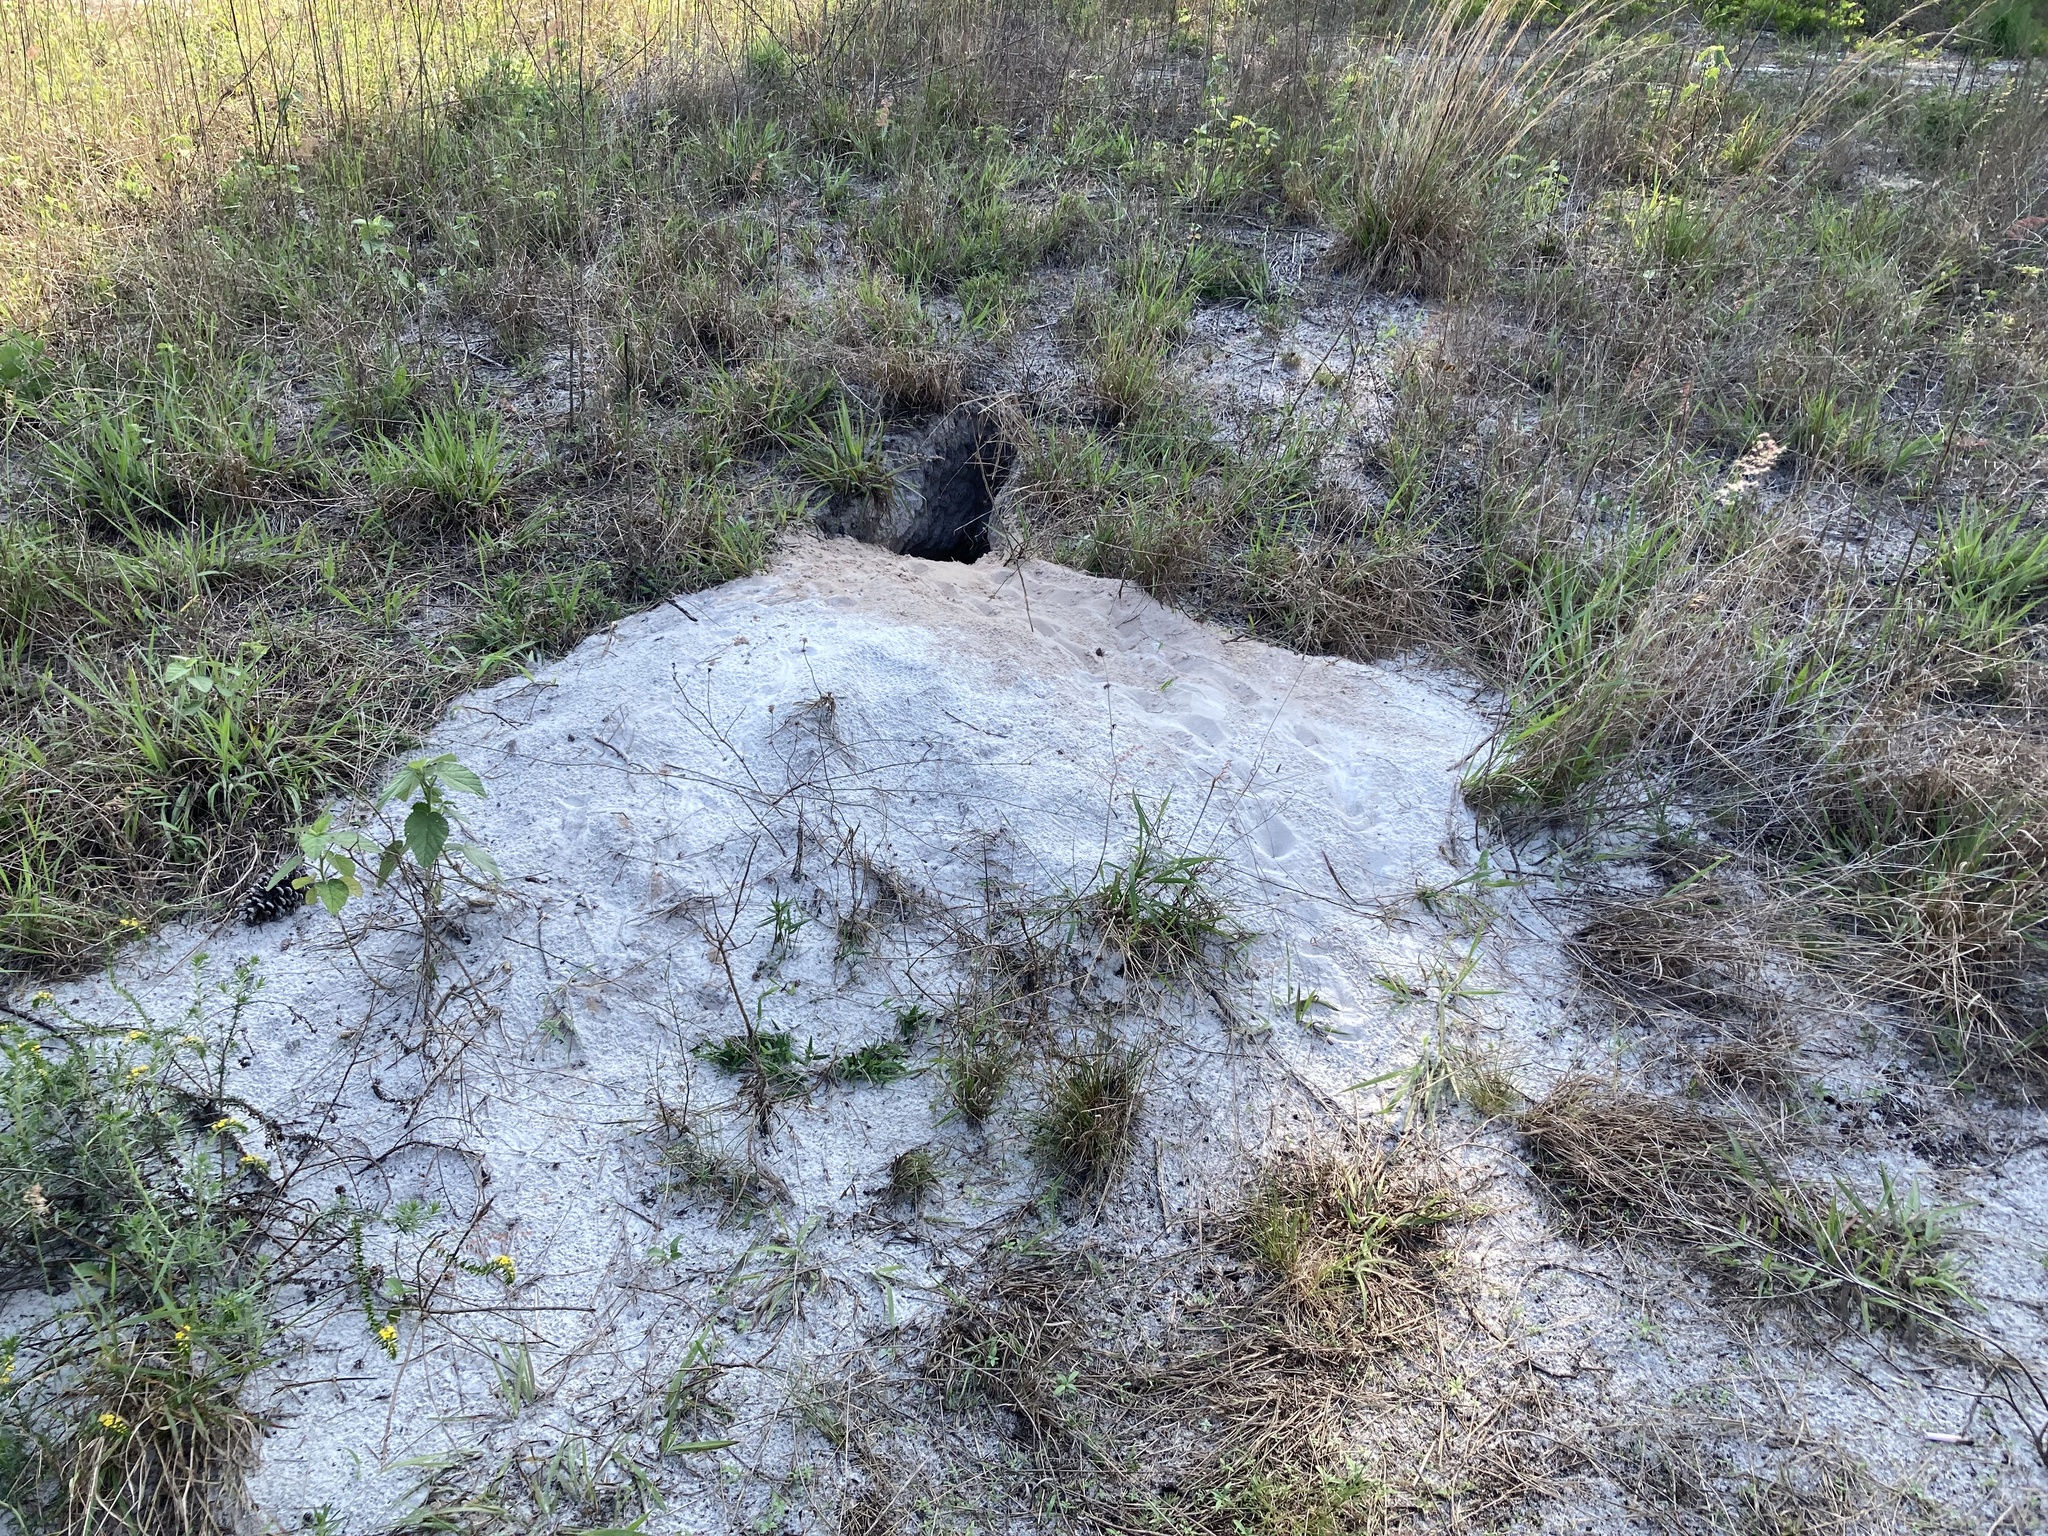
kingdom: Animalia
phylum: Chordata
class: Testudines
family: Testudinidae
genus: Gopherus
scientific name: Gopherus polyphemus
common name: Florida gopher tortoise
